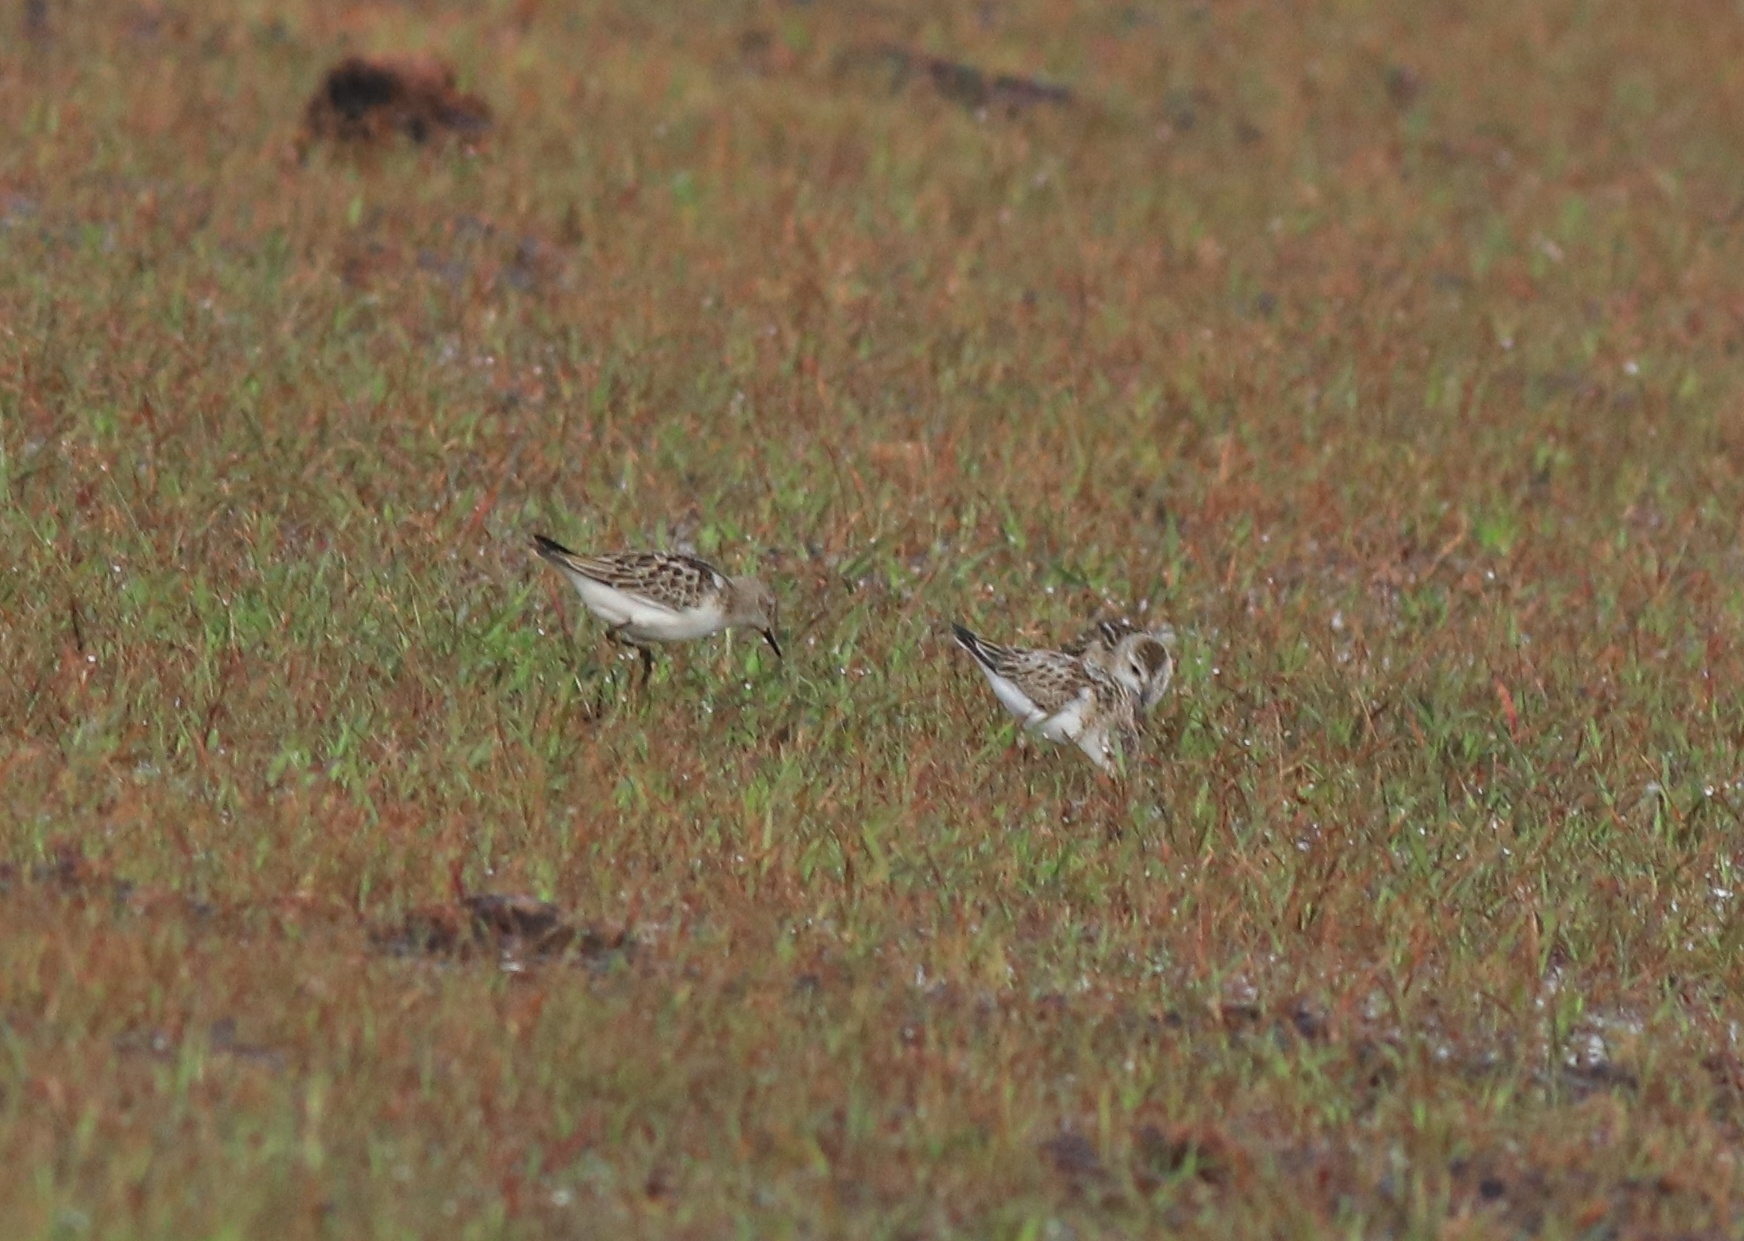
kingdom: Animalia
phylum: Chordata
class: Aves
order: Charadriiformes
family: Scolopacidae
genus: Calidris
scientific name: Calidris minuta
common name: Little stint
